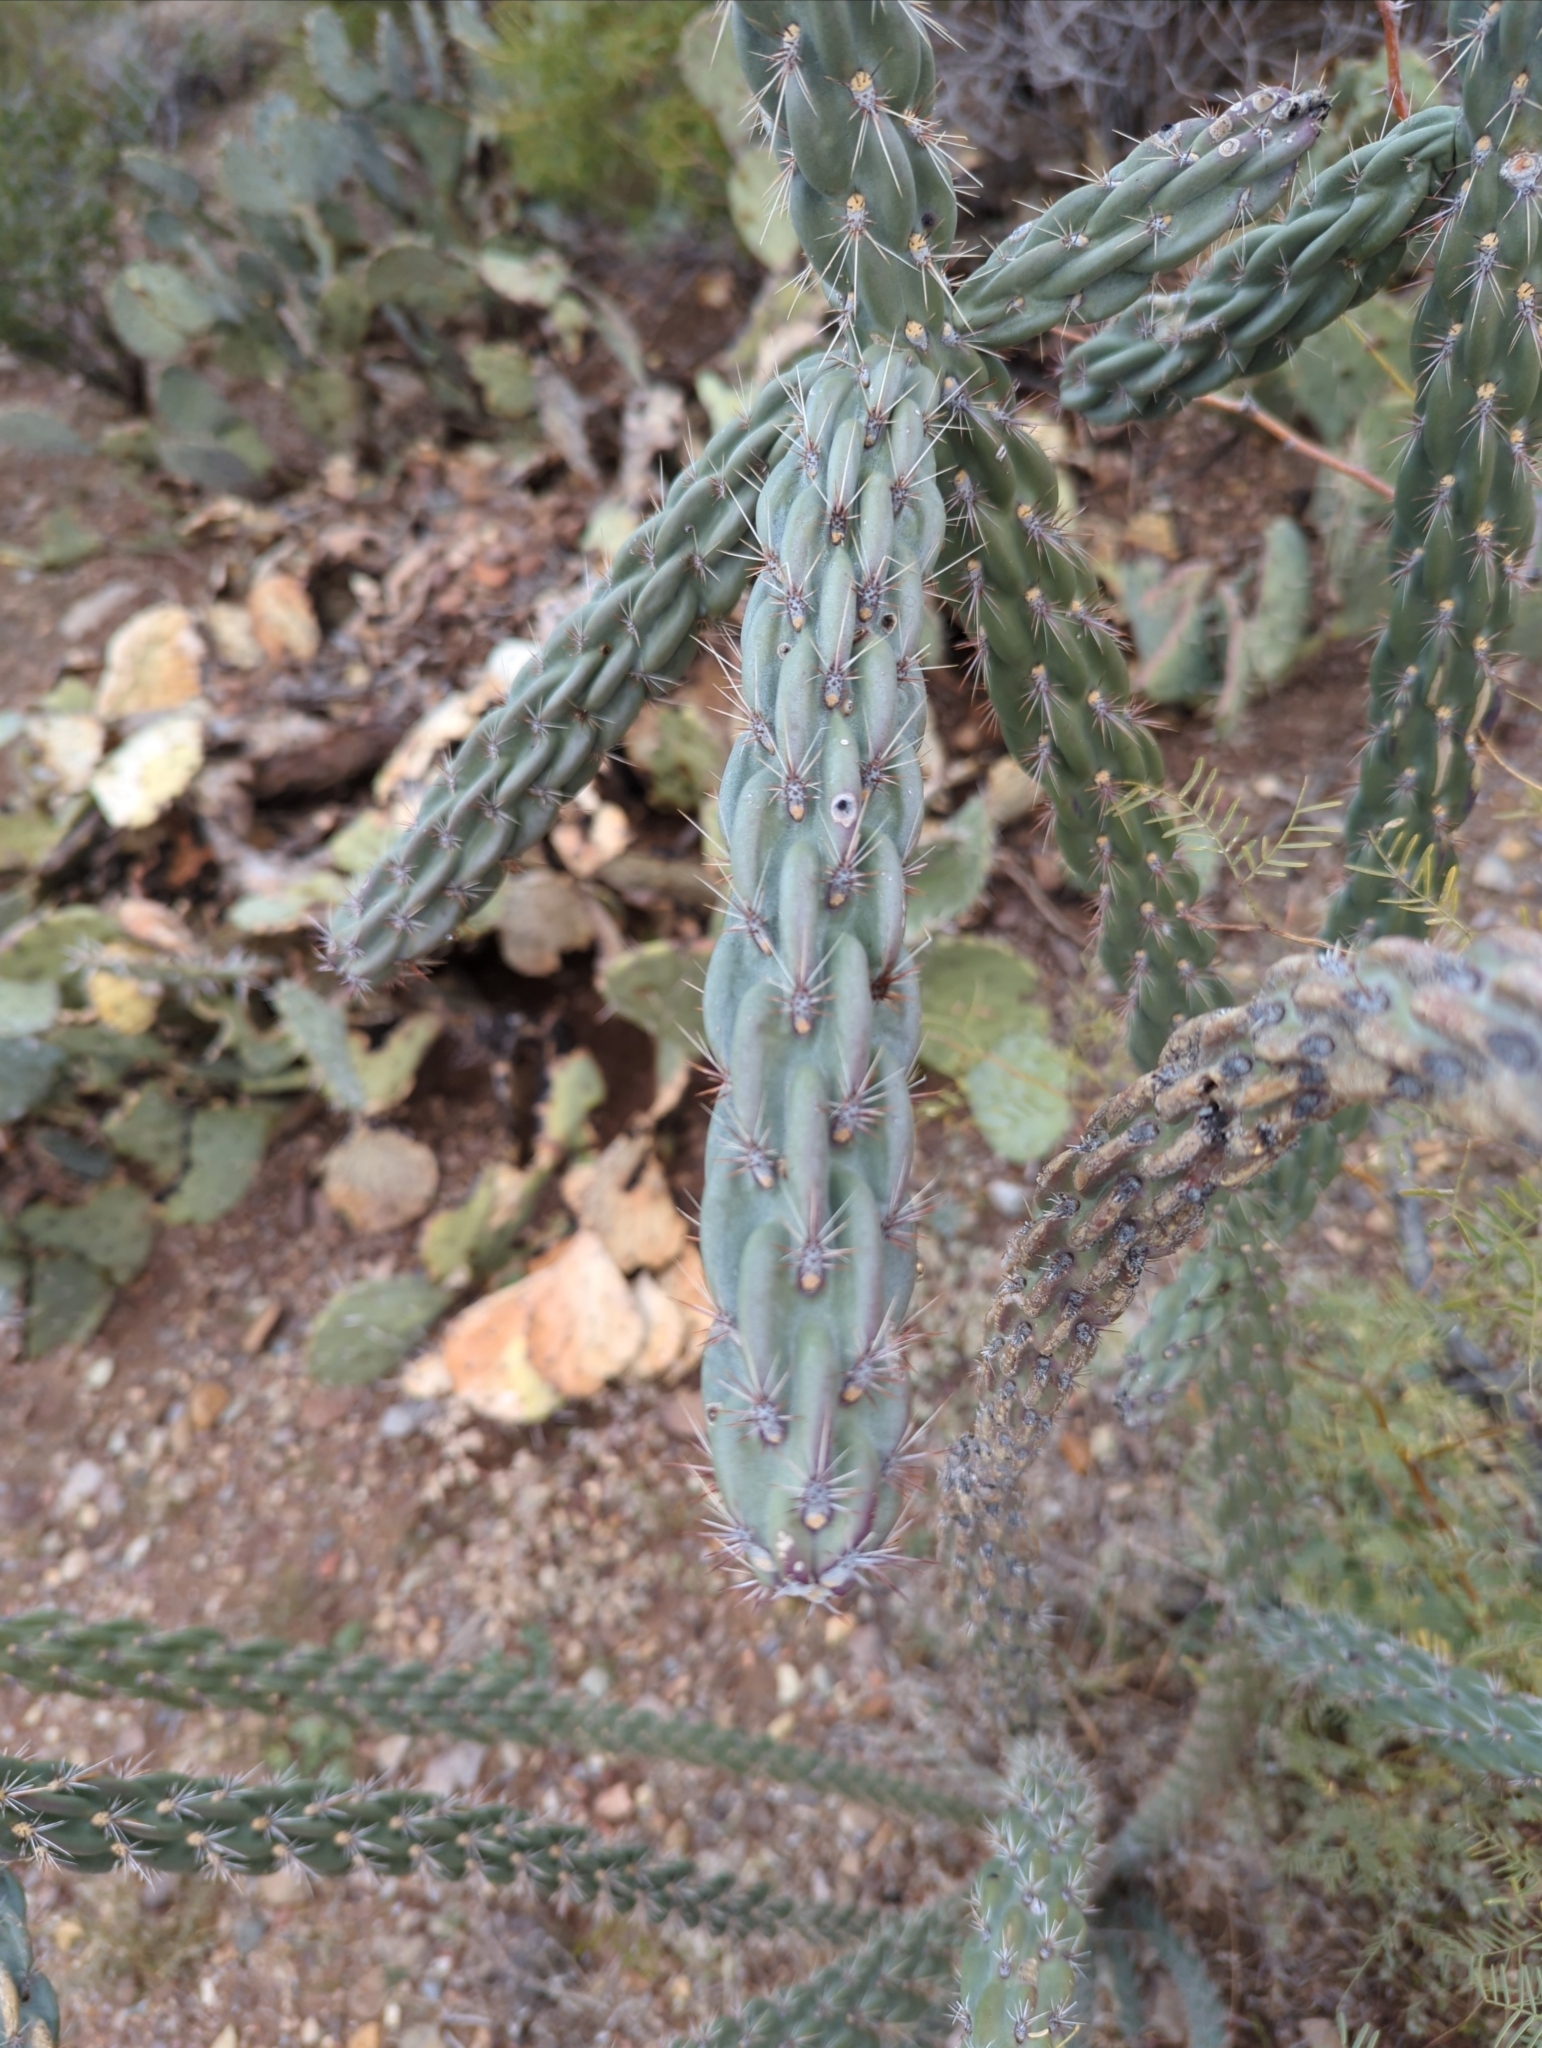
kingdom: Plantae
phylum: Tracheophyta
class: Magnoliopsida
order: Caryophyllales
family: Cactaceae
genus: Cylindropuntia
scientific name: Cylindropuntia imbricata
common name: Candelabrum cactus
